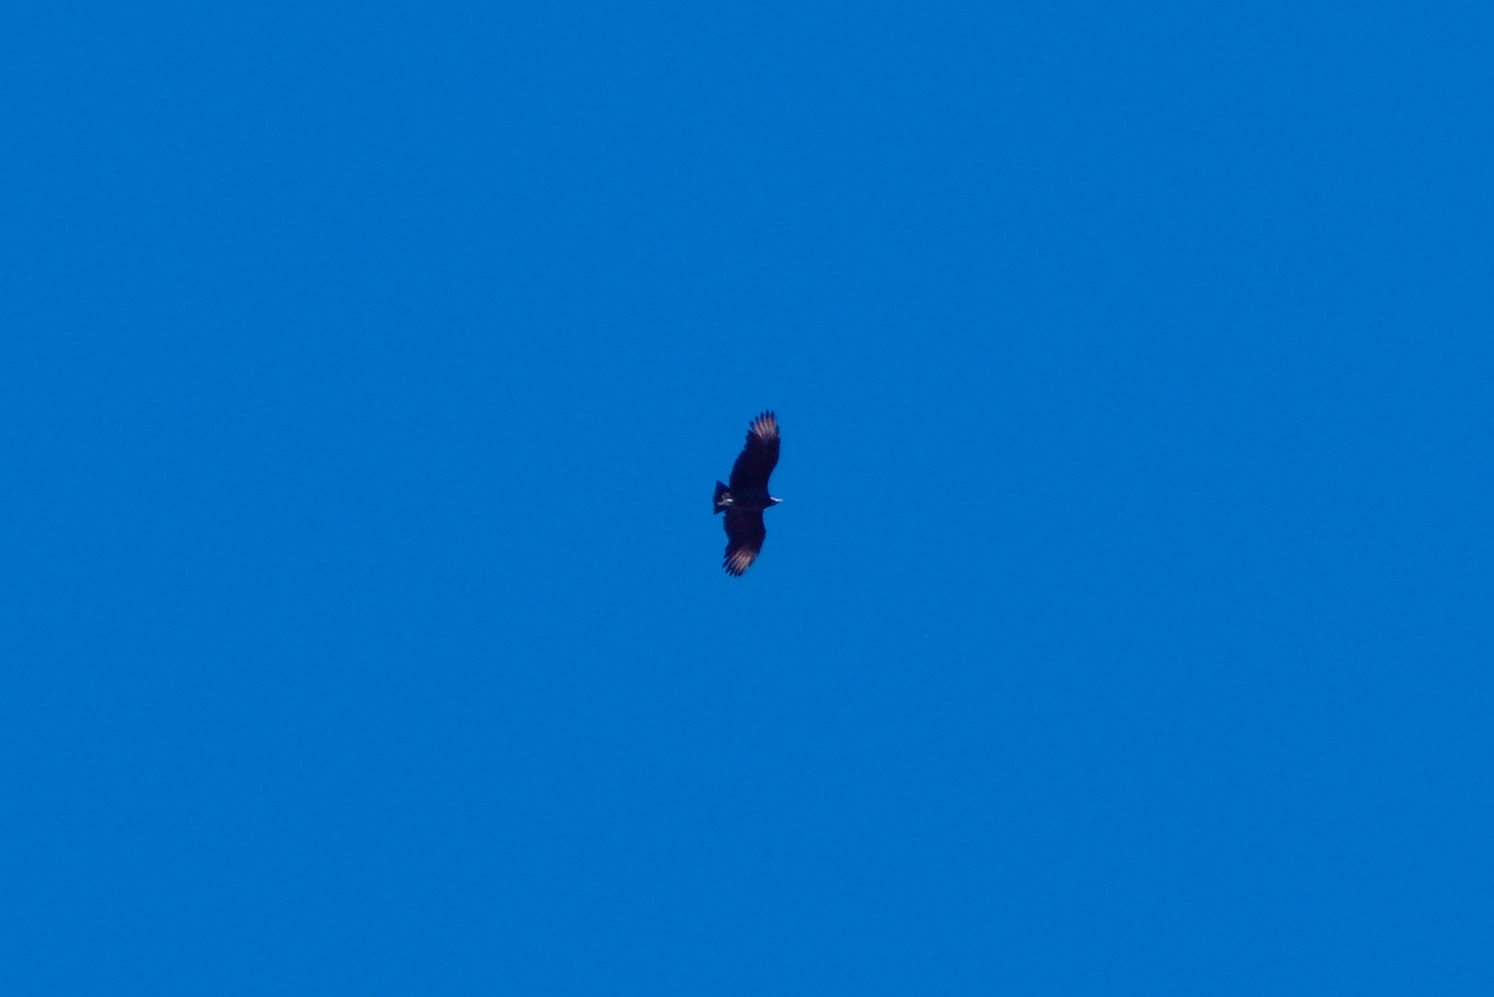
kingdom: Animalia
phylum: Chordata
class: Aves
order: Accipitriformes
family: Cathartidae
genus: Coragyps
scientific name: Coragyps atratus
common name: Black vulture
